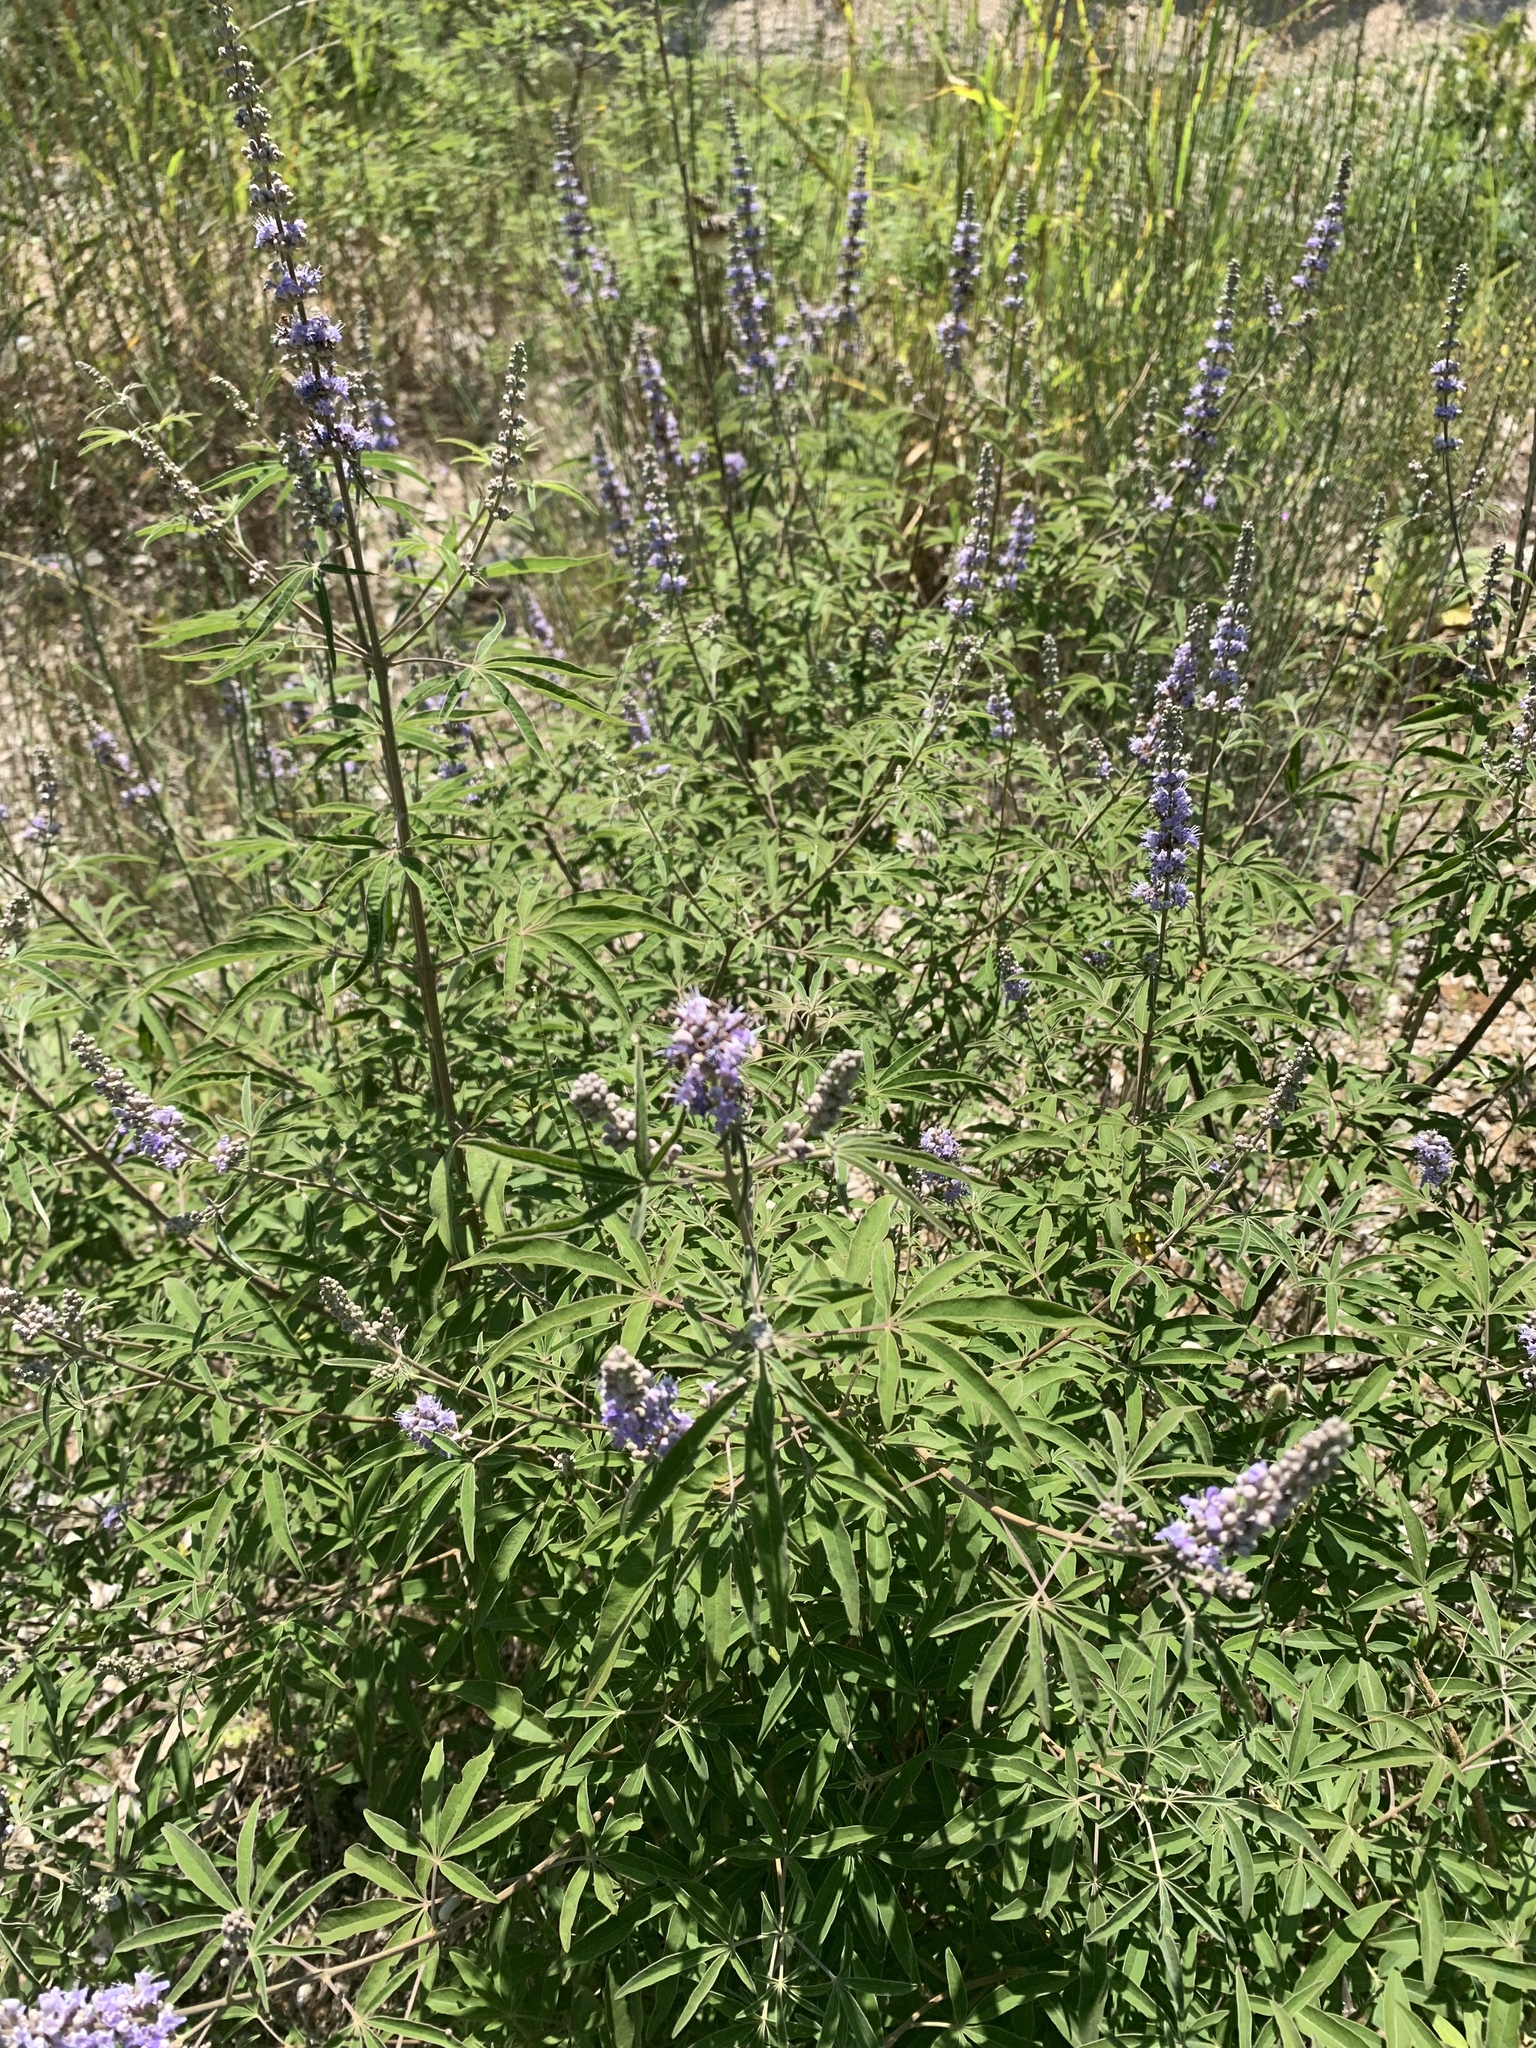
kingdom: Plantae
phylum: Tracheophyta
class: Magnoliopsida
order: Lamiales
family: Lamiaceae
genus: Vitex
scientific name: Vitex agnus-castus
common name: Chasteberry
